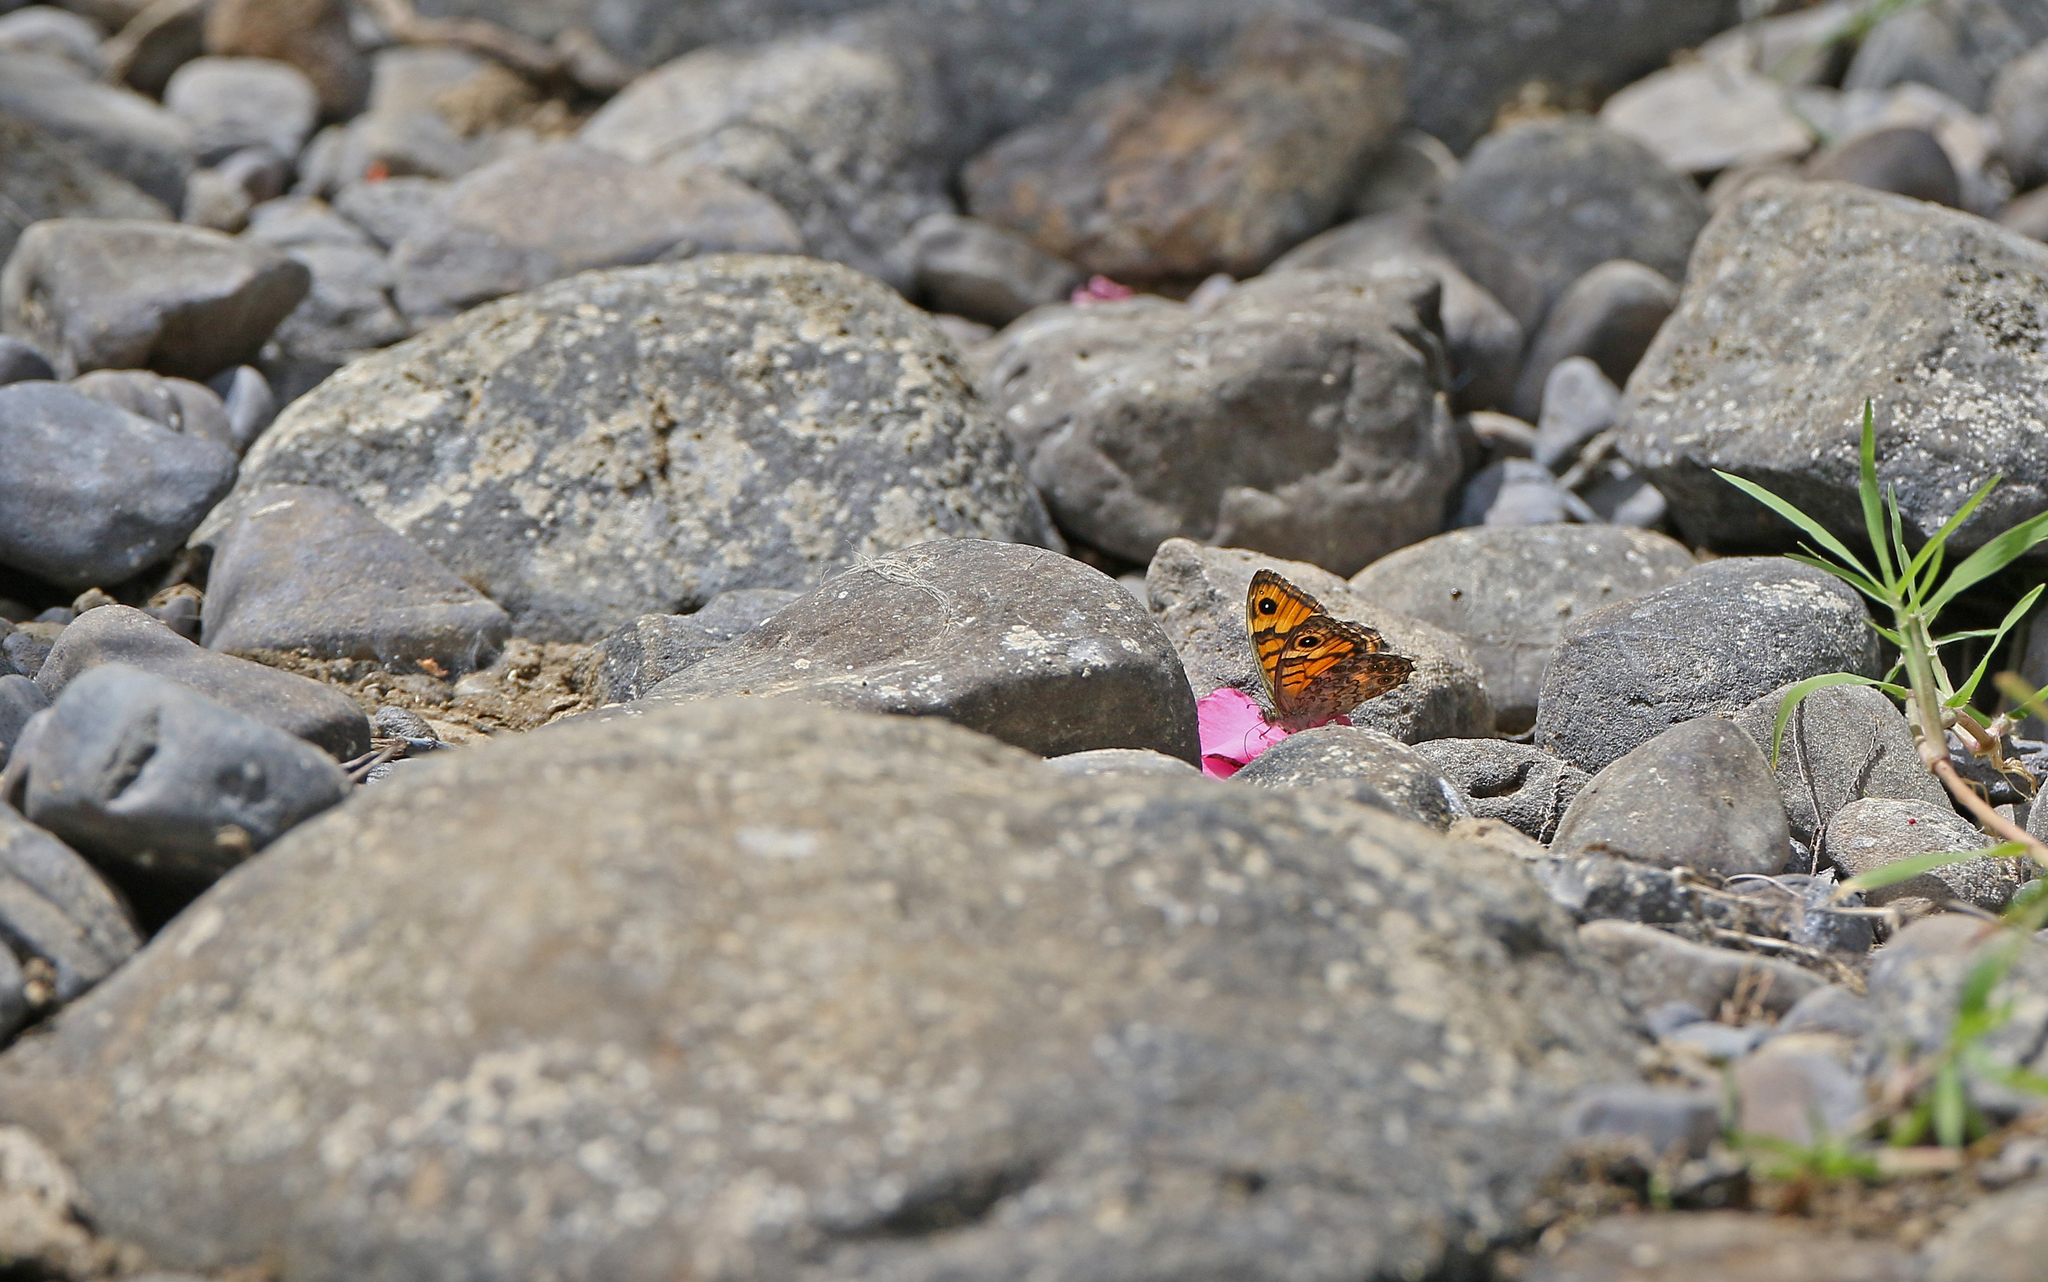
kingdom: Animalia
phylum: Arthropoda
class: Insecta
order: Lepidoptera
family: Nymphalidae
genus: Pararge
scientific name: Pararge Lasiommata megera
